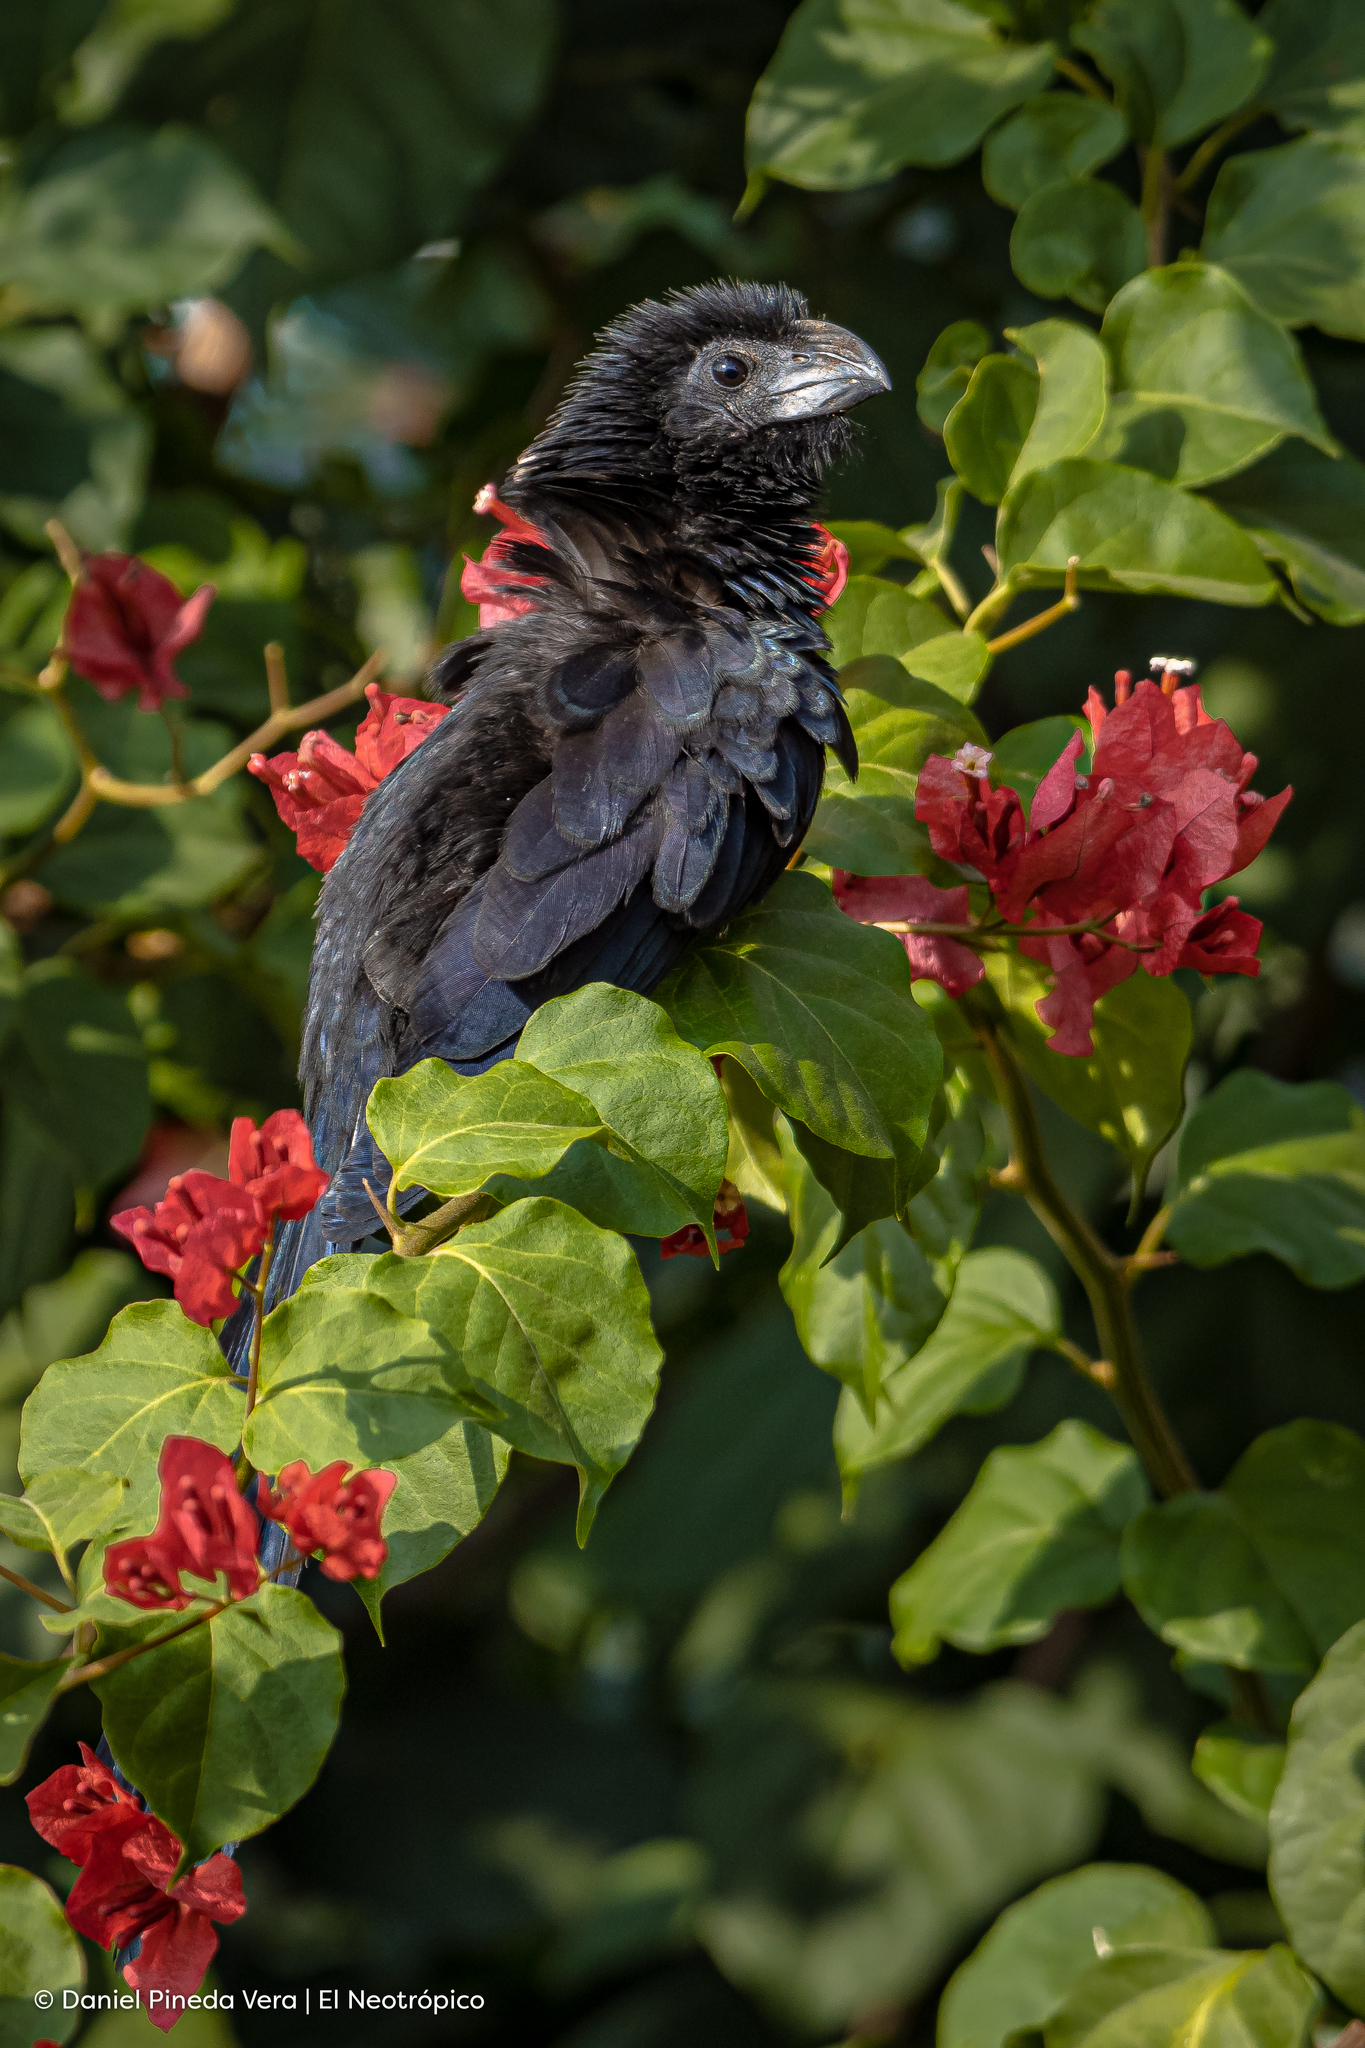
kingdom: Animalia
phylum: Chordata
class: Aves
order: Cuculiformes
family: Cuculidae
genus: Crotophaga
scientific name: Crotophaga sulcirostris
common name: Groove-billed ani
